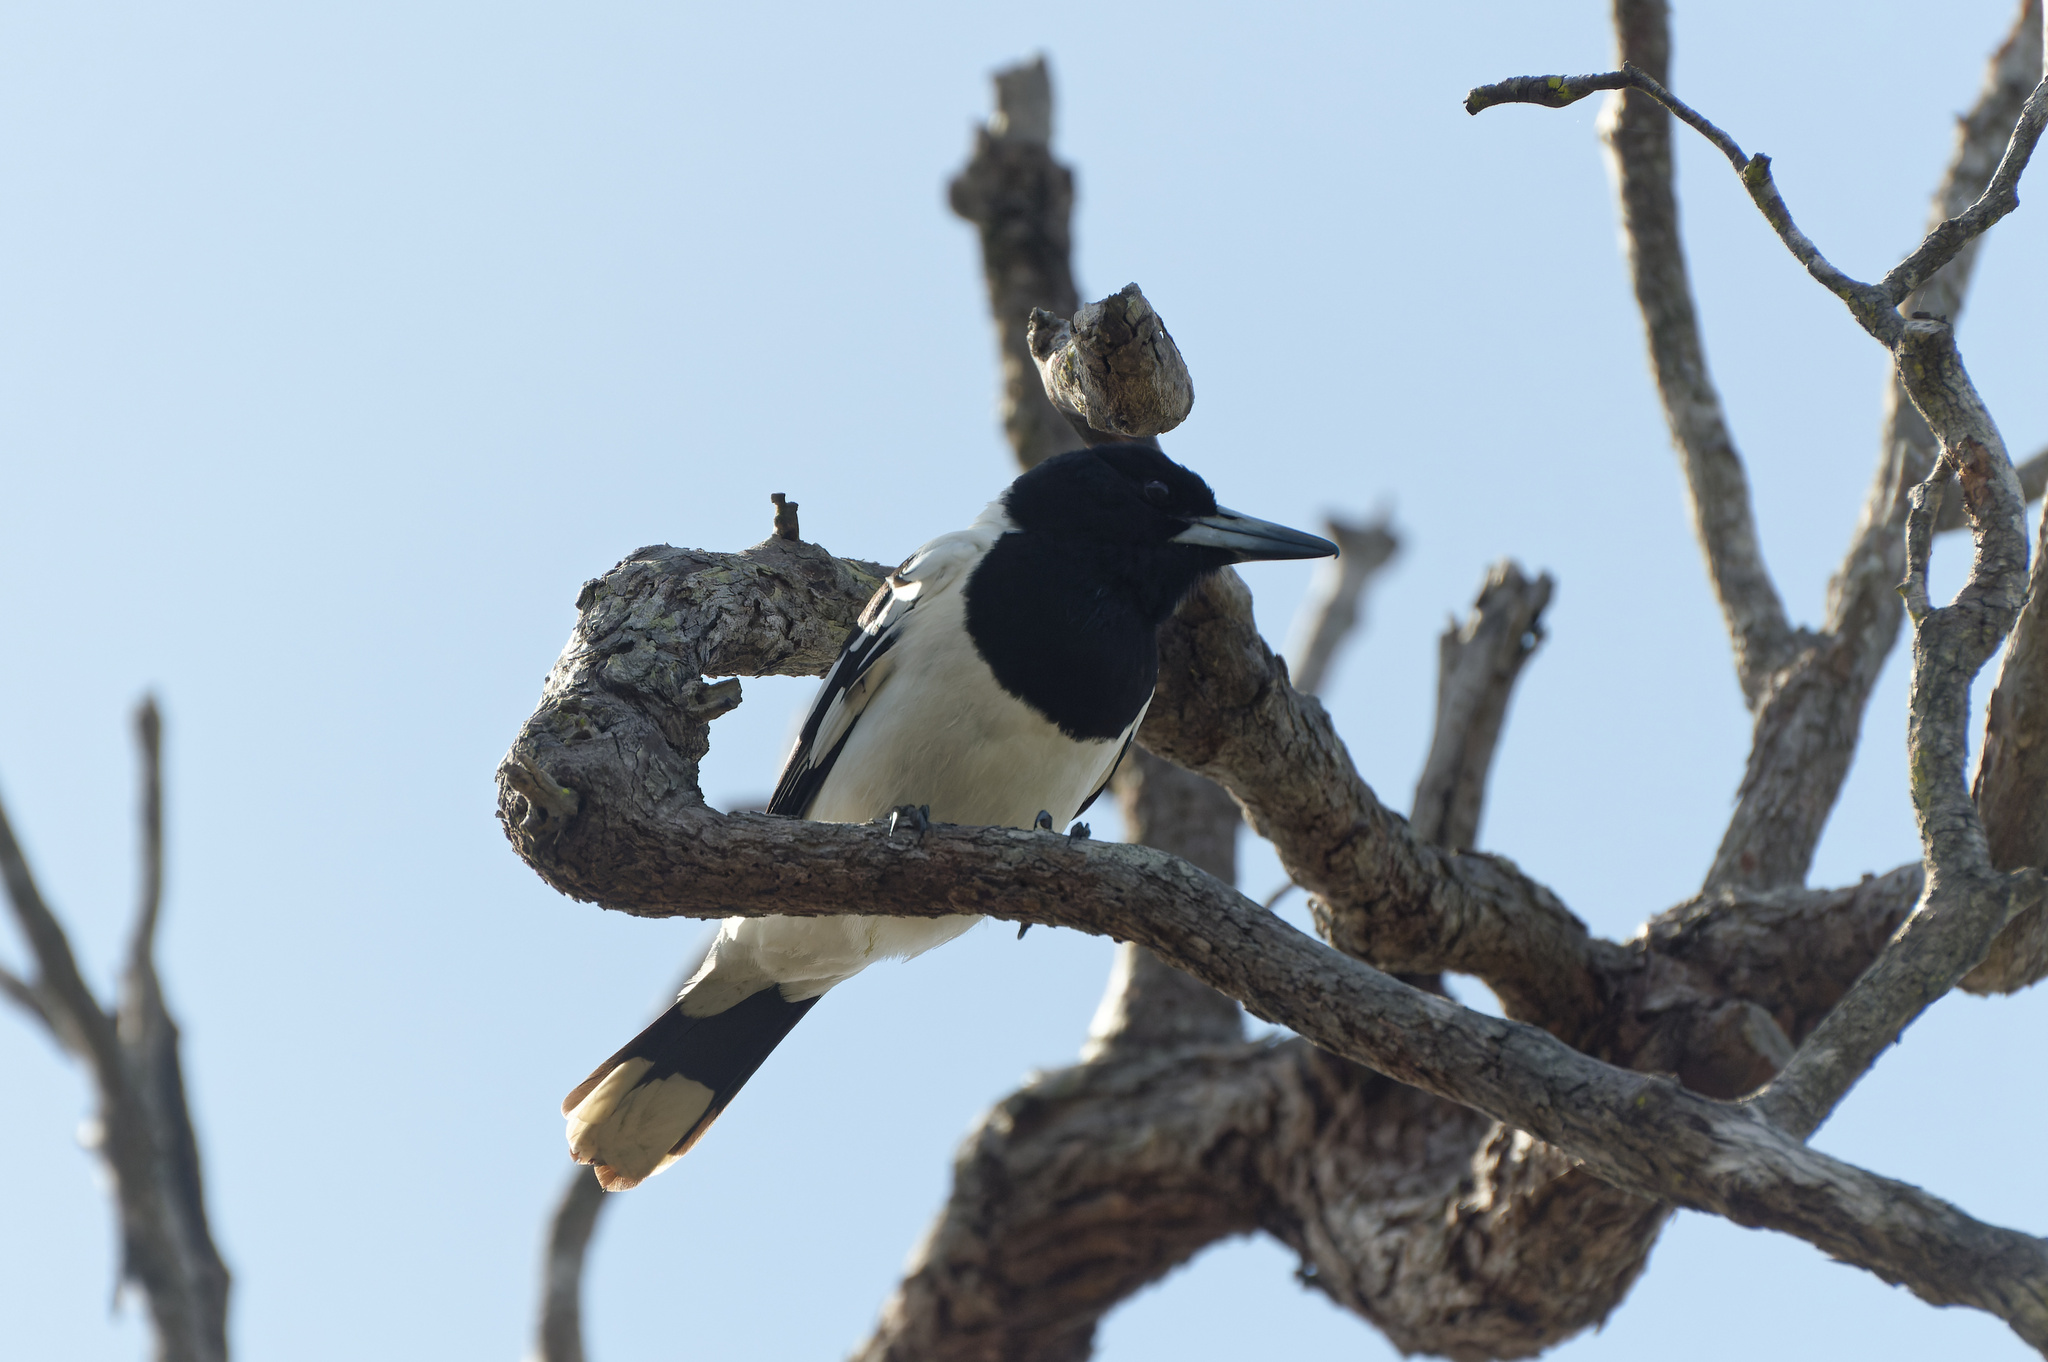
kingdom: Animalia
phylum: Chordata
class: Aves
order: Passeriformes
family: Cracticidae
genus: Cracticus
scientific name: Cracticus nigrogularis
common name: Pied butcherbird
